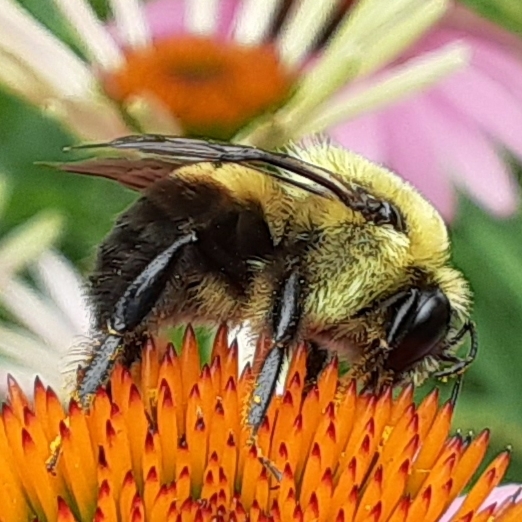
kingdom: Animalia
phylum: Arthropoda
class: Insecta
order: Hymenoptera
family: Apidae
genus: Bombus
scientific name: Bombus griseocollis
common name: Brown-belted bumble bee
